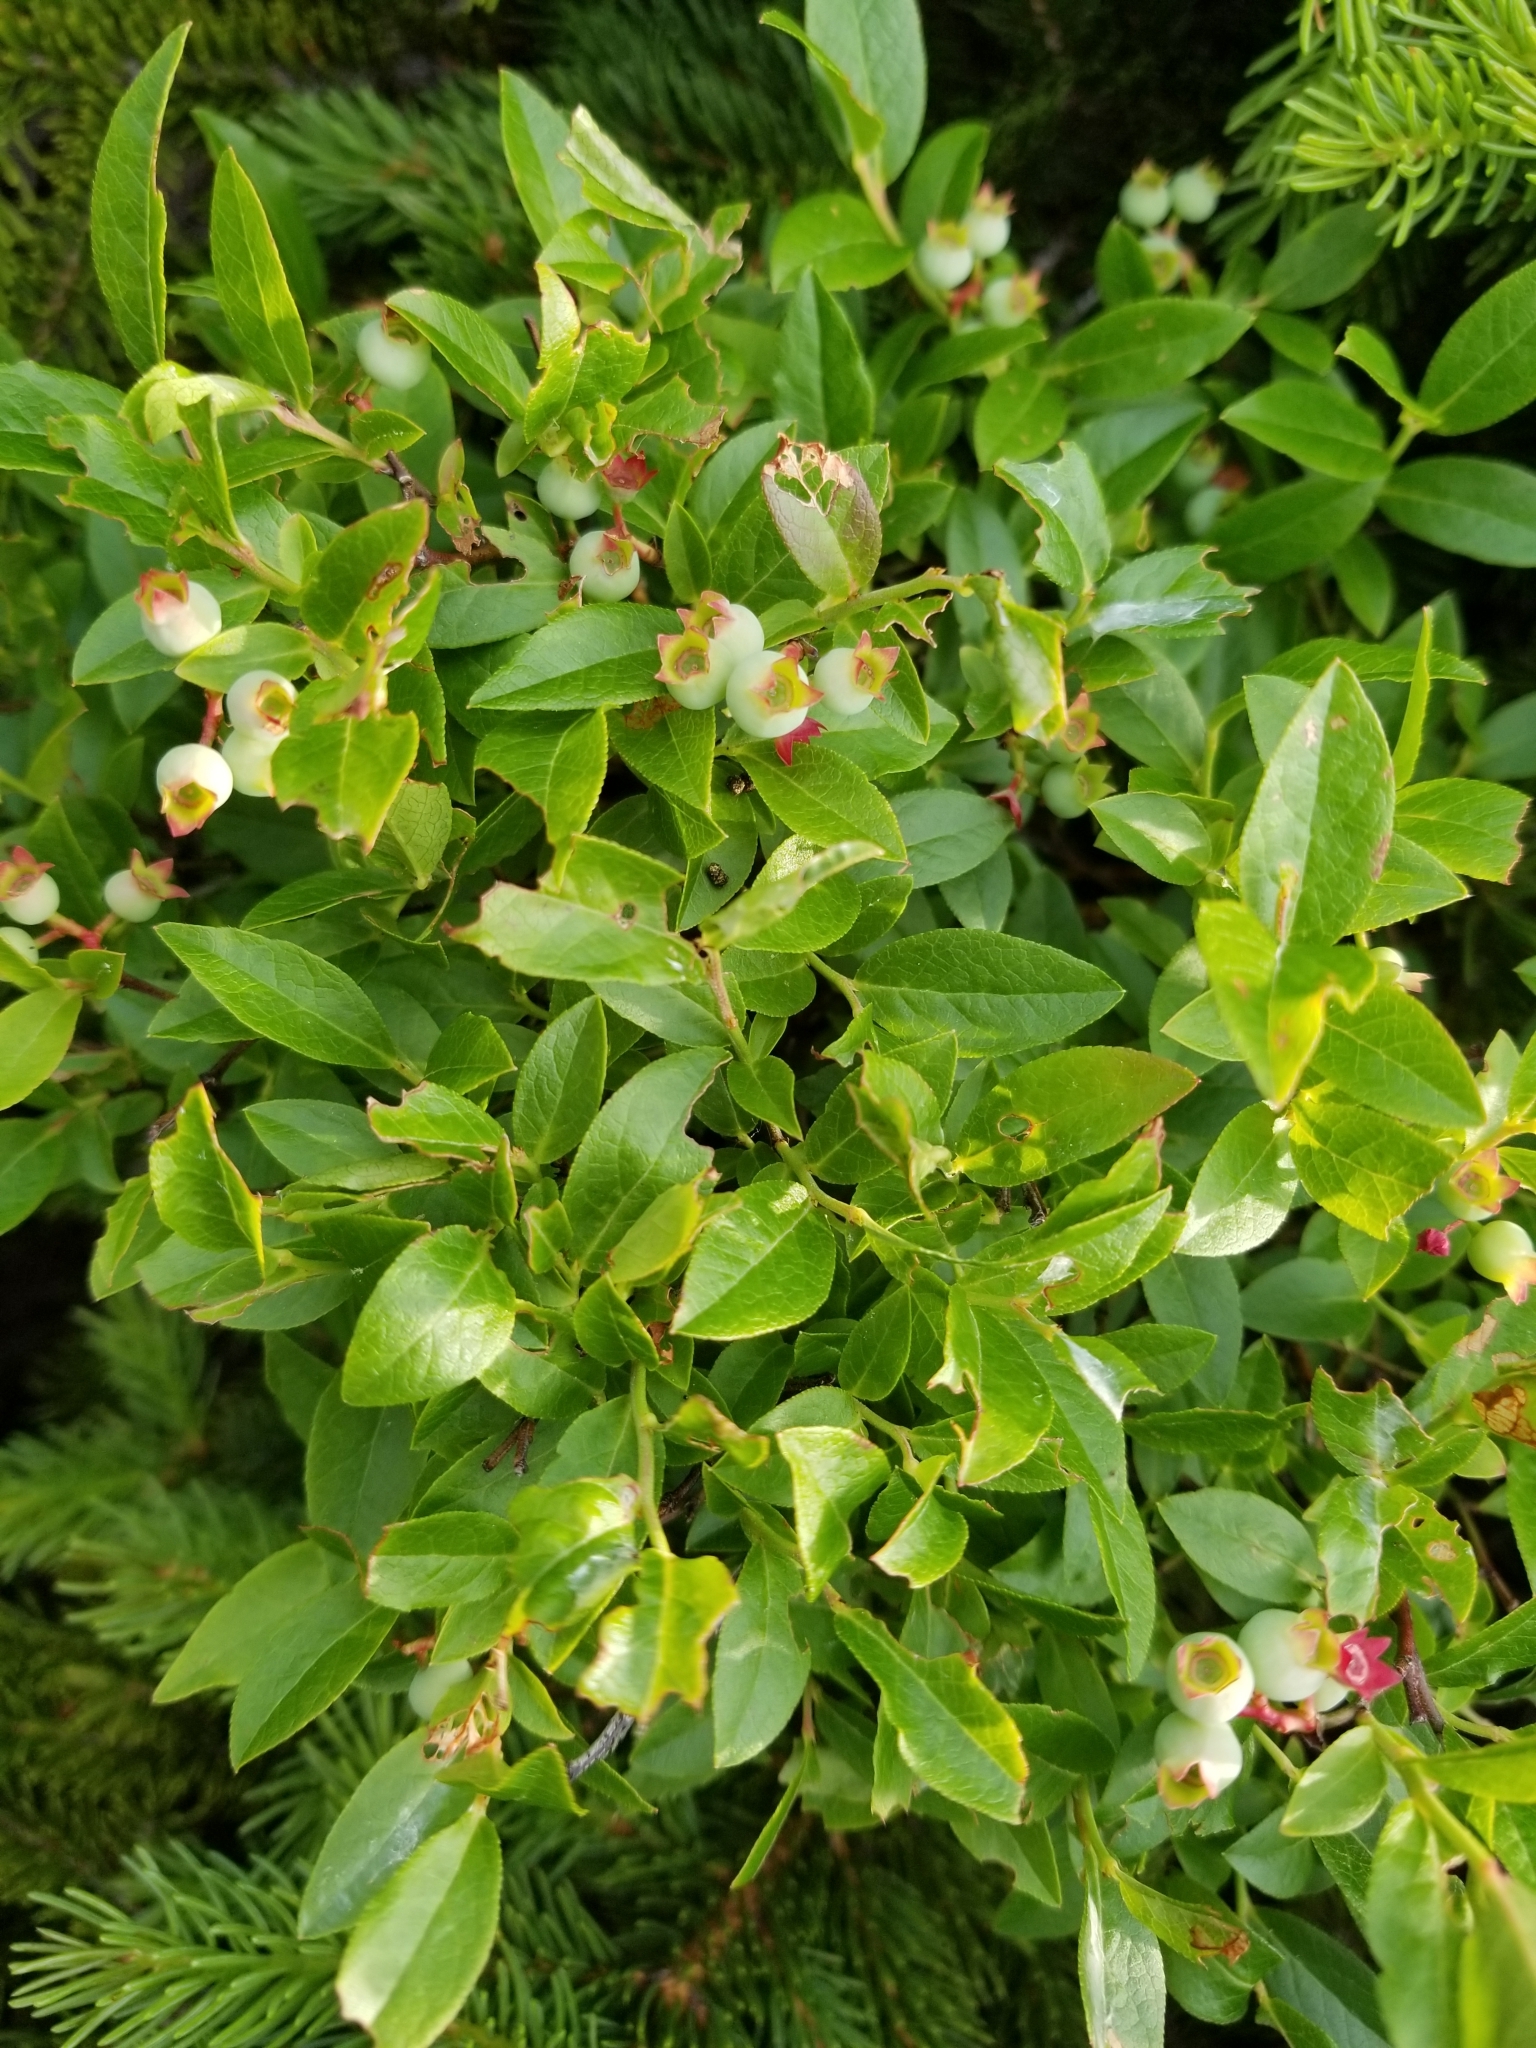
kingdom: Plantae
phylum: Tracheophyta
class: Magnoliopsida
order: Ericales
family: Ericaceae
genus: Vaccinium
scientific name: Vaccinium angustifolium
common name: Early lowbush blueberry
